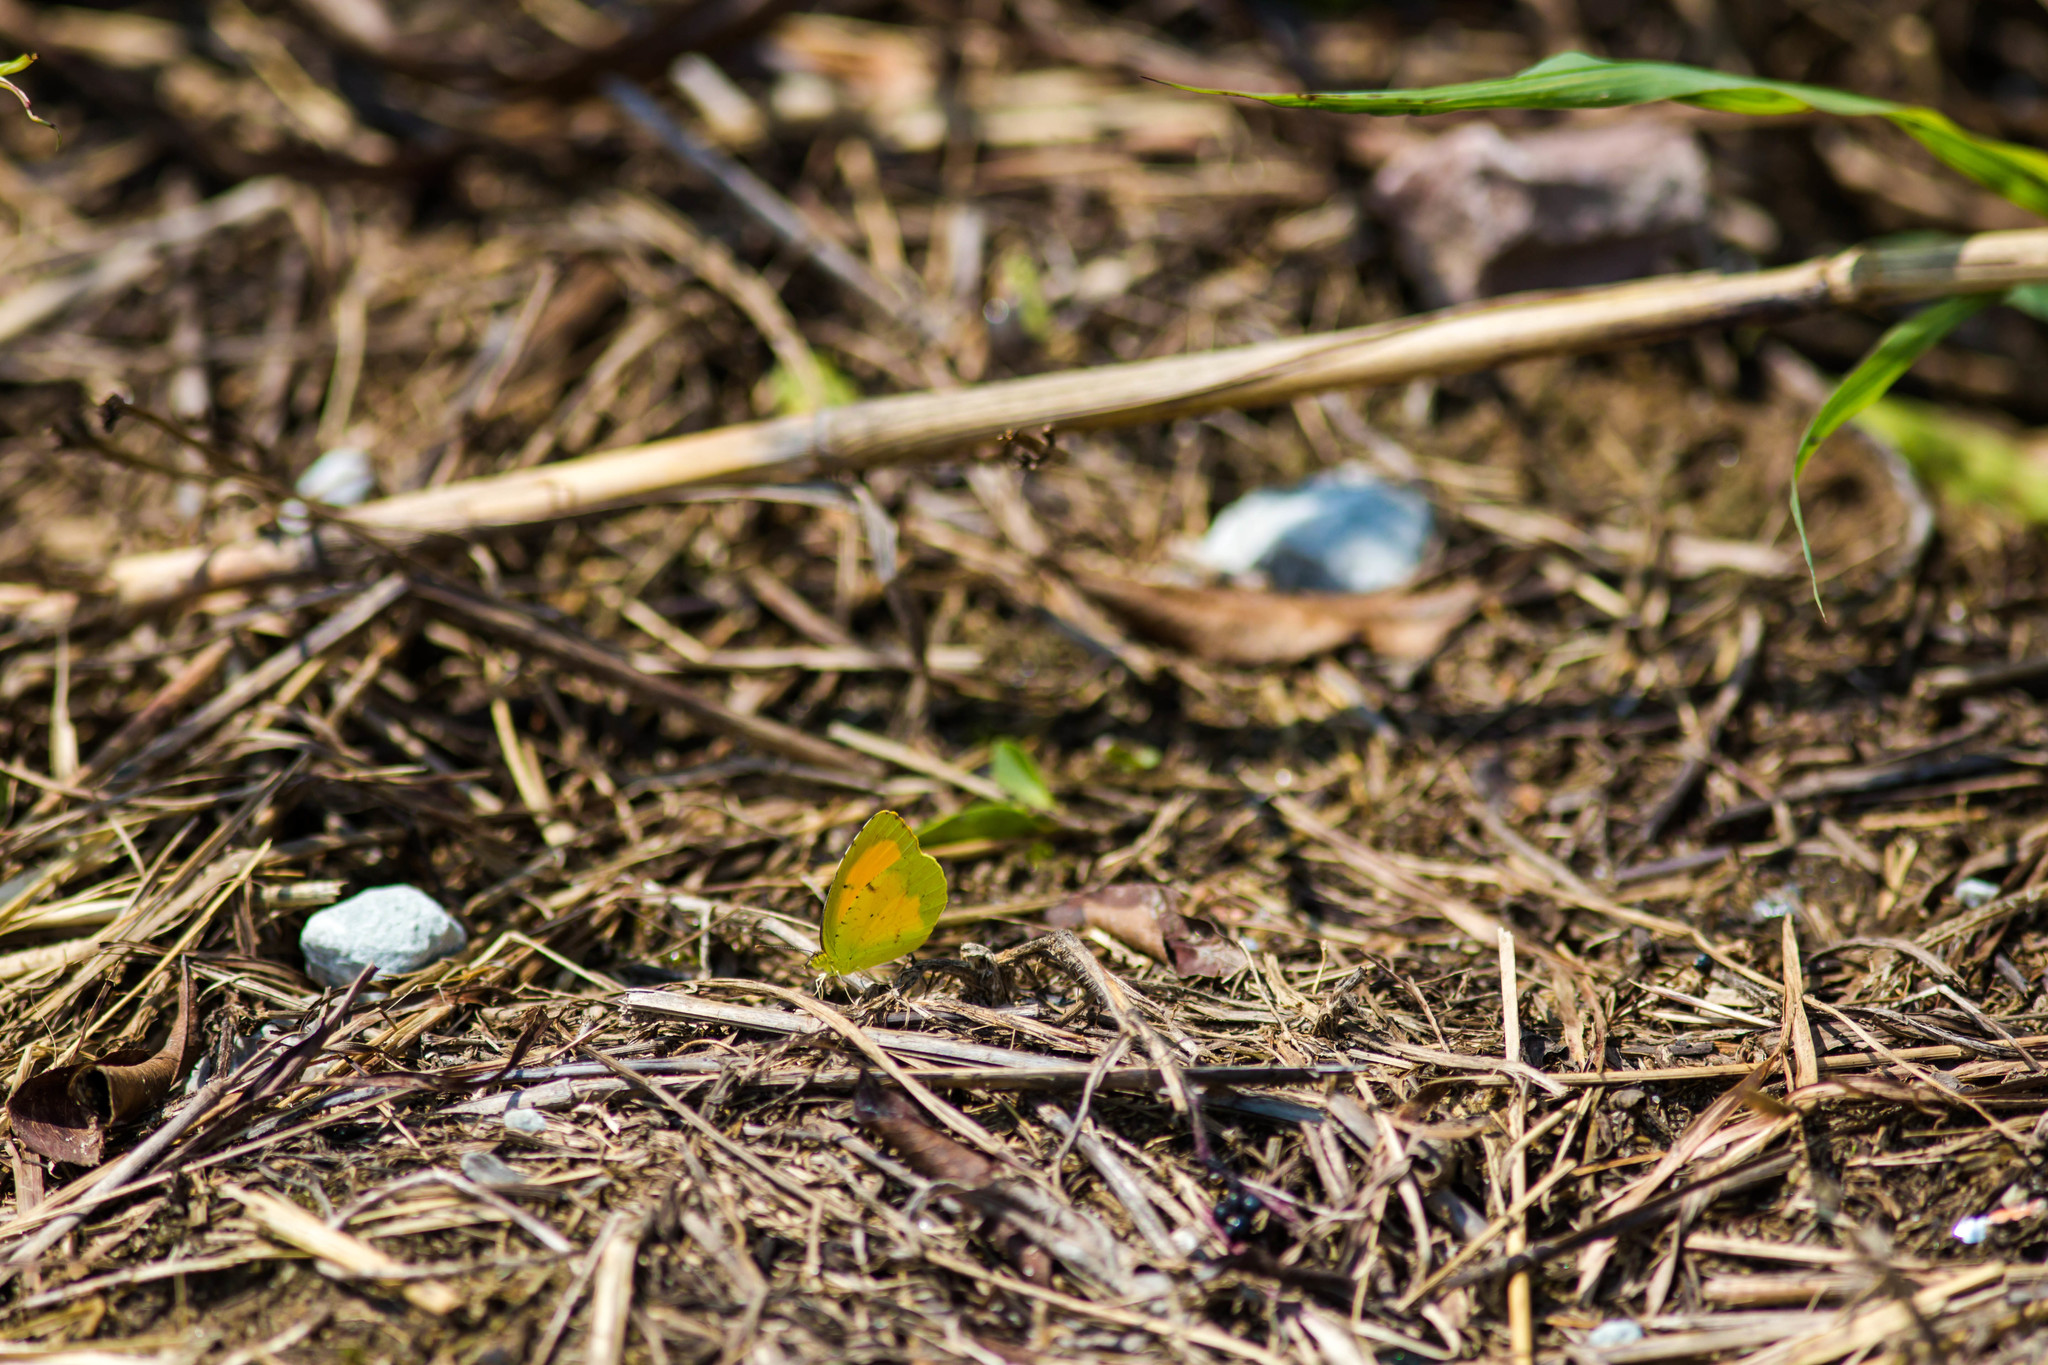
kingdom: Animalia
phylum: Arthropoda
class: Insecta
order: Lepidoptera
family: Pieridae
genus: Abaeis
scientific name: Abaeis nicippe
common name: Sleepy orange
